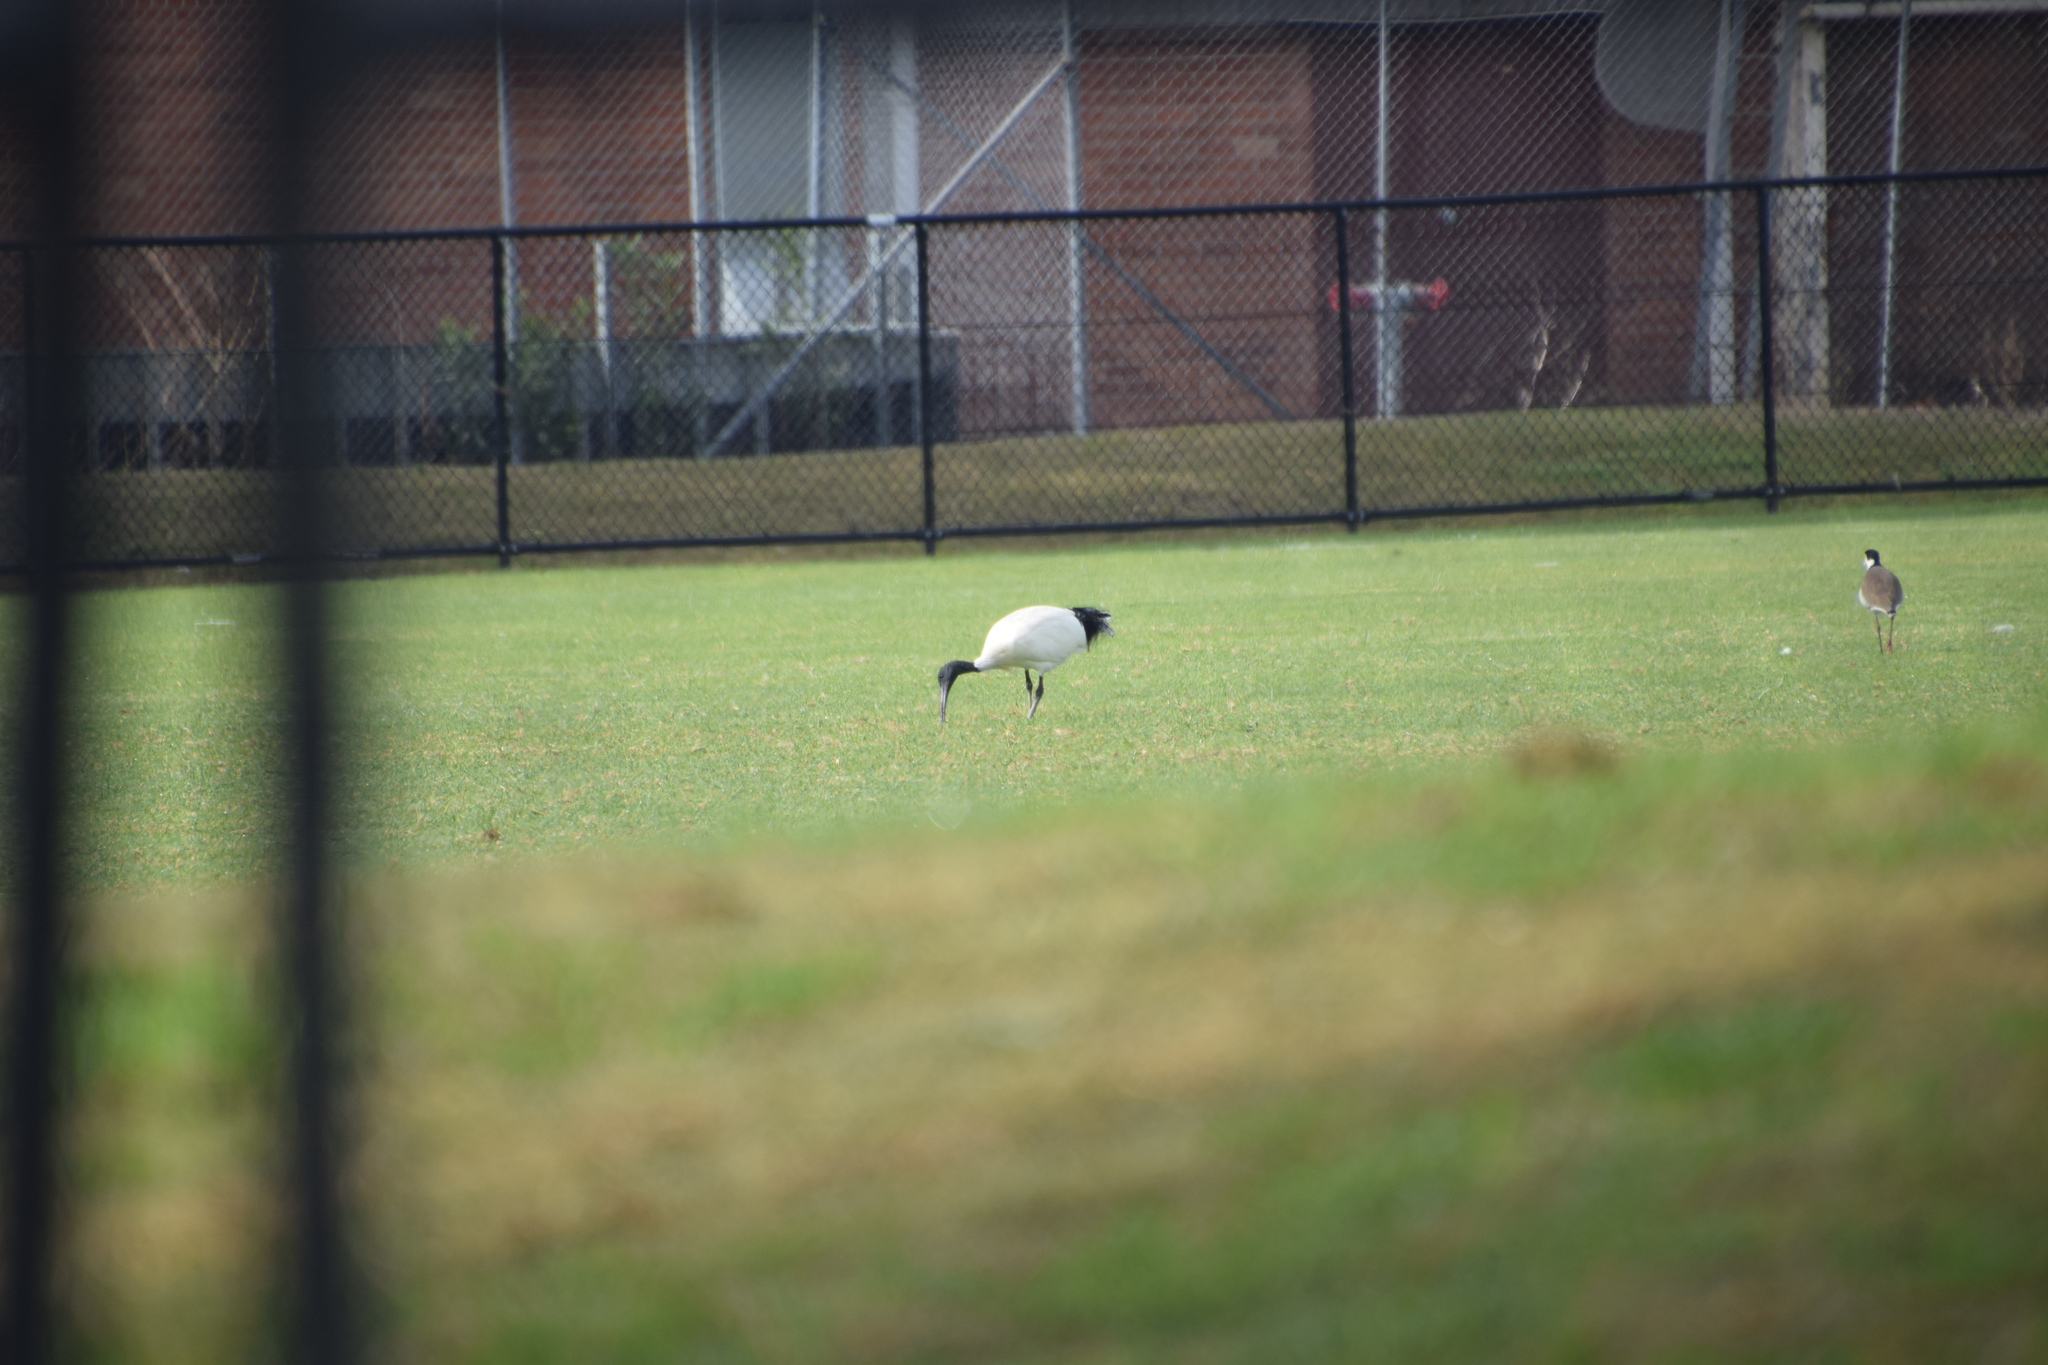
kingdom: Animalia
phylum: Chordata
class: Aves
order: Pelecaniformes
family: Threskiornithidae
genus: Threskiornis
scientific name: Threskiornis molucca
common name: Australian white ibis
